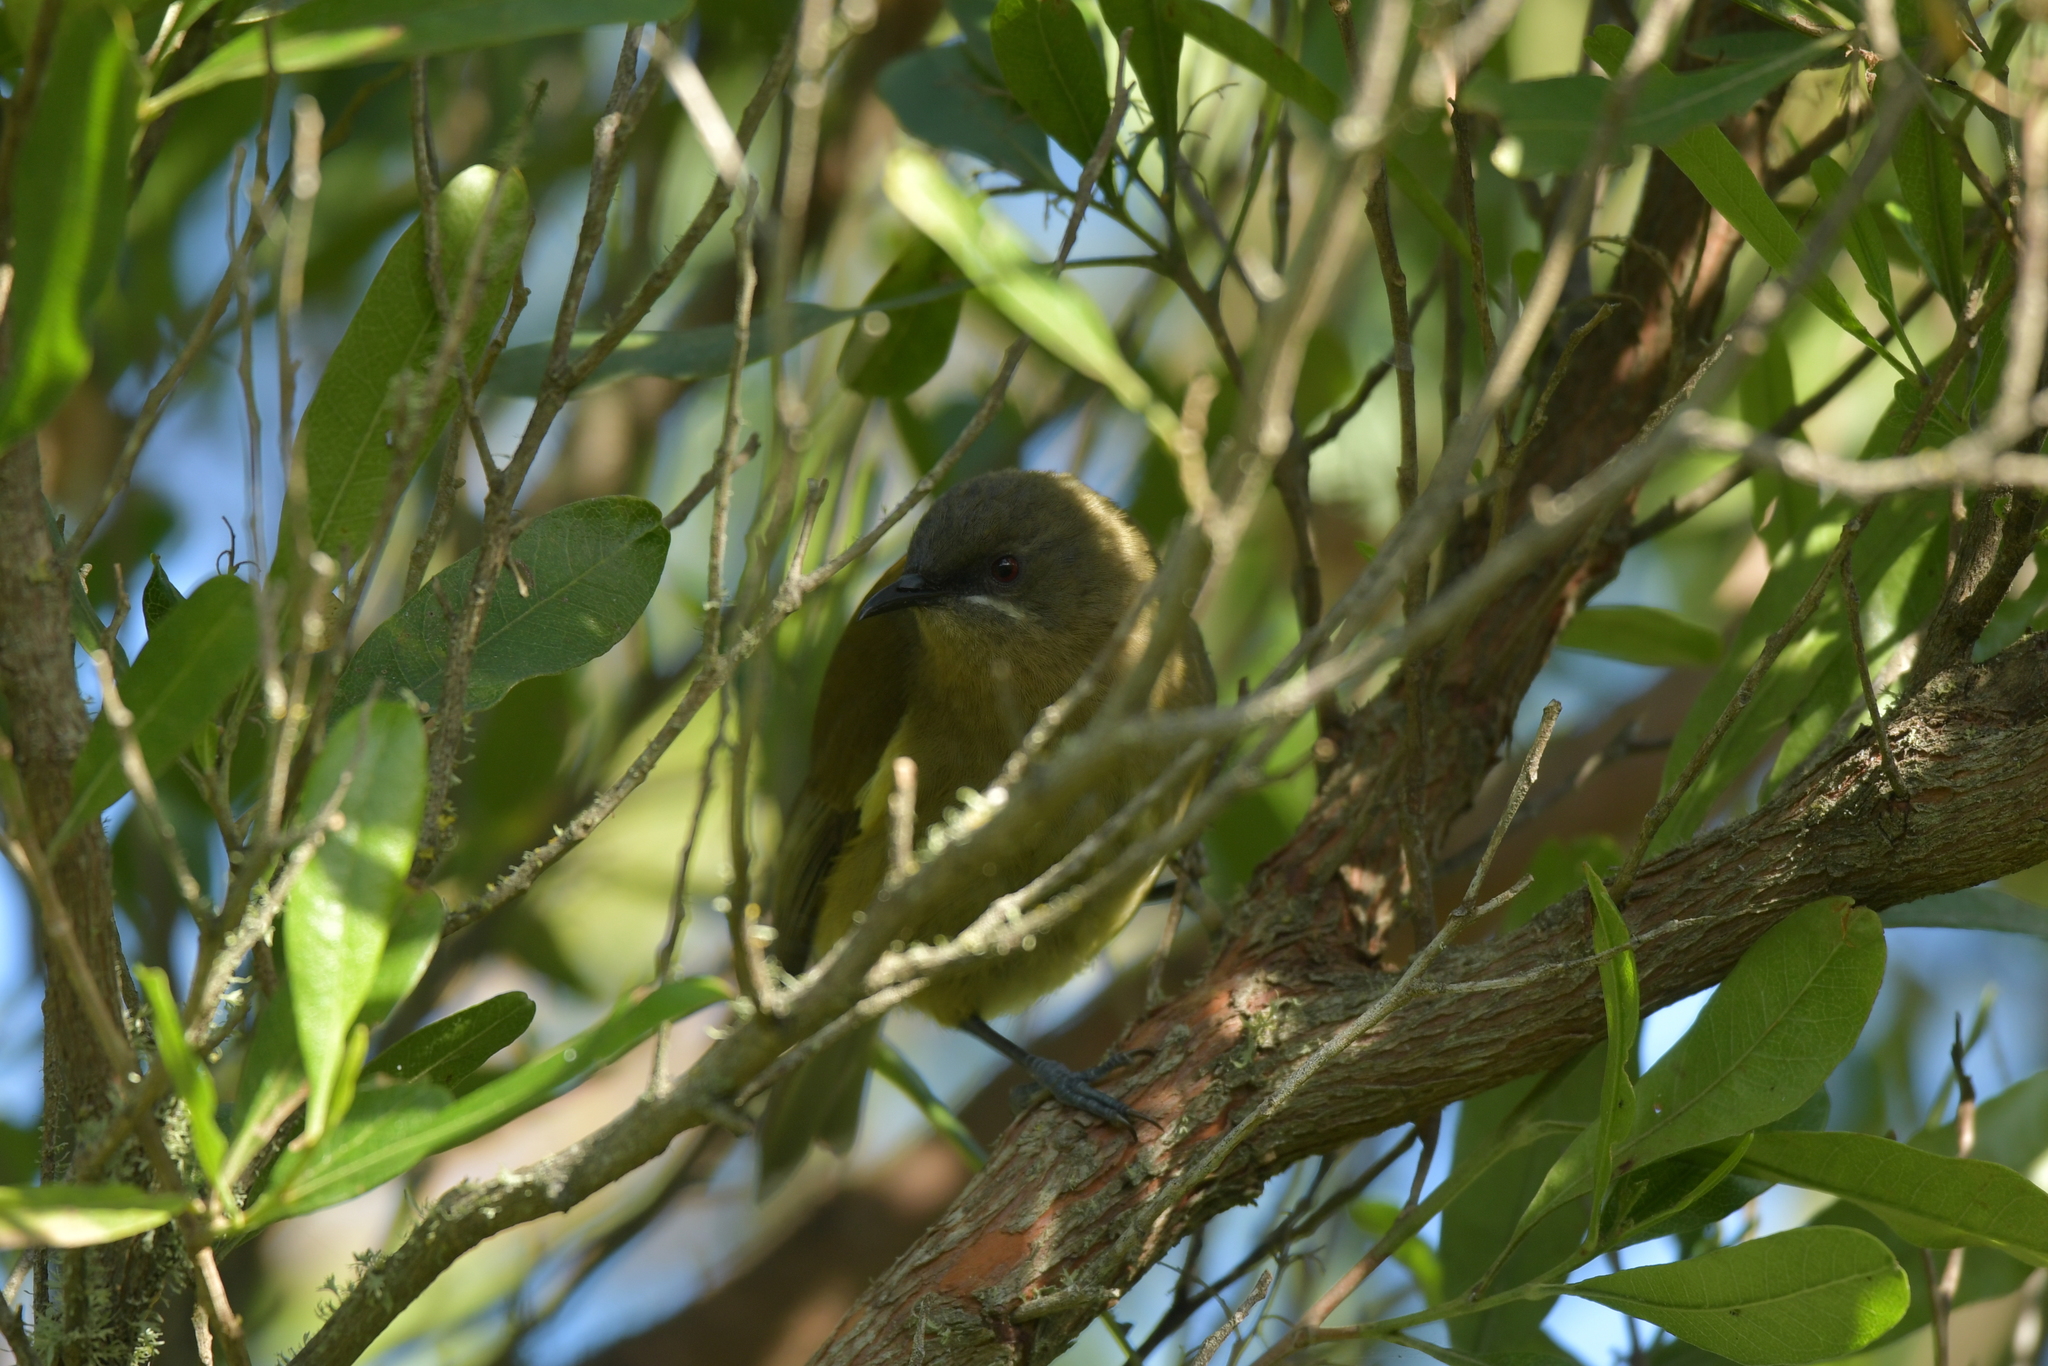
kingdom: Animalia
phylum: Chordata
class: Aves
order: Passeriformes
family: Meliphagidae
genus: Anthornis
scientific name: Anthornis melanura
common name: New zealand bellbird
